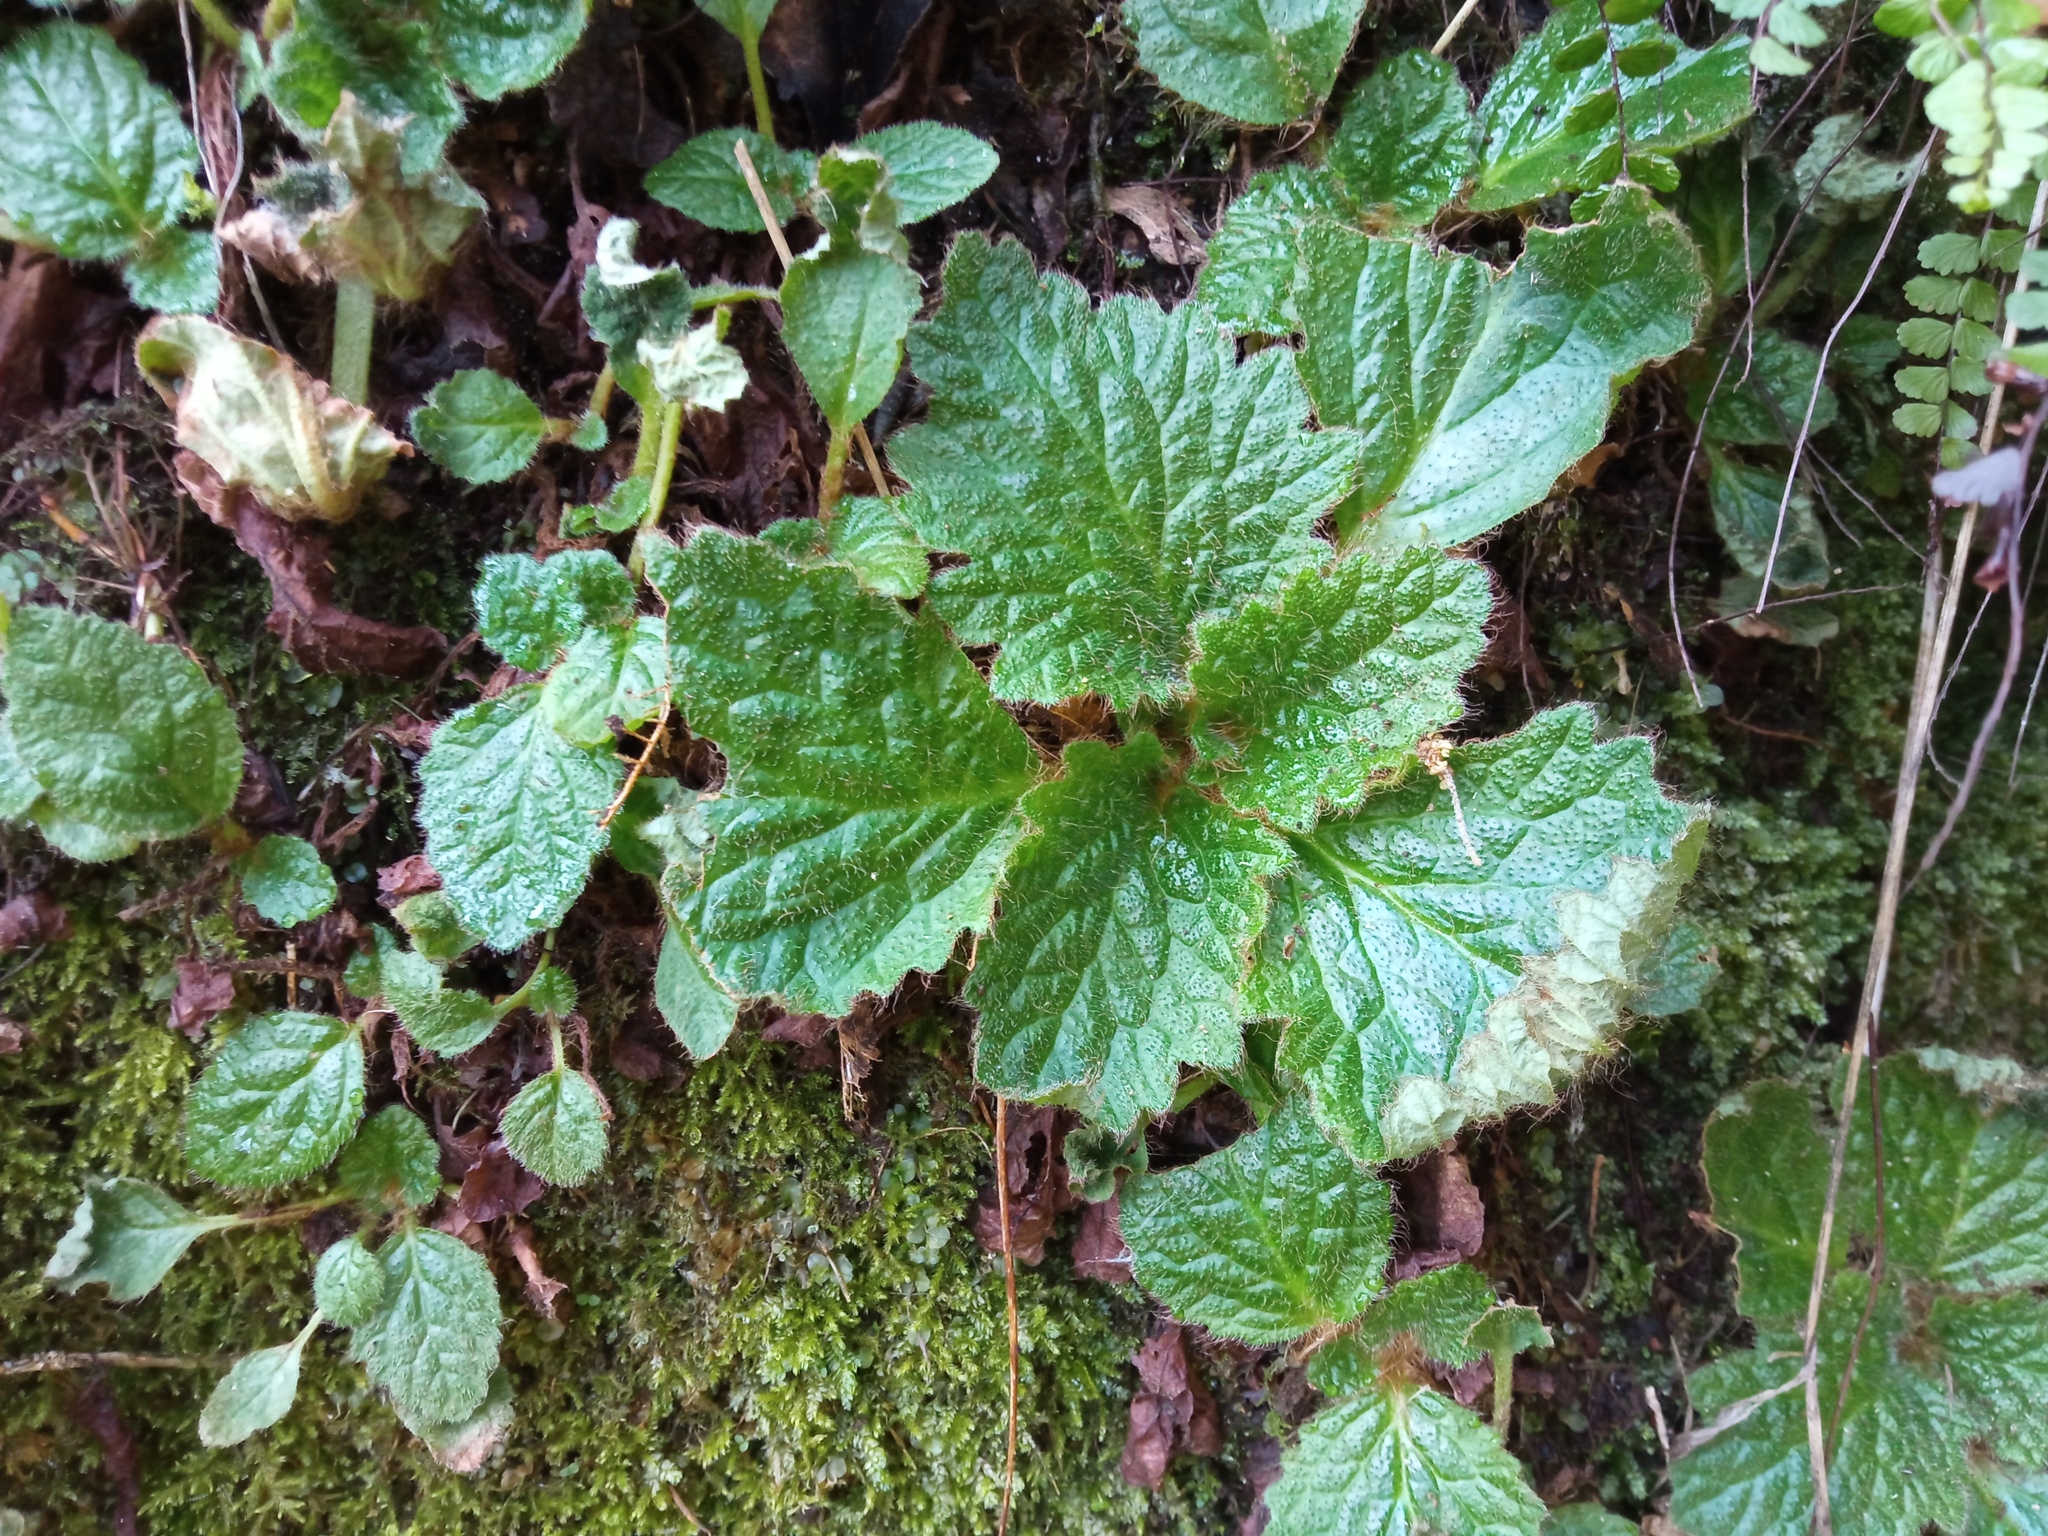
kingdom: Plantae
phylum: Tracheophyta
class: Magnoliopsida
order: Lamiales
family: Gesneriaceae
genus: Ramonda
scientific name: Ramonda myconi
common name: Pyrenean-violet
